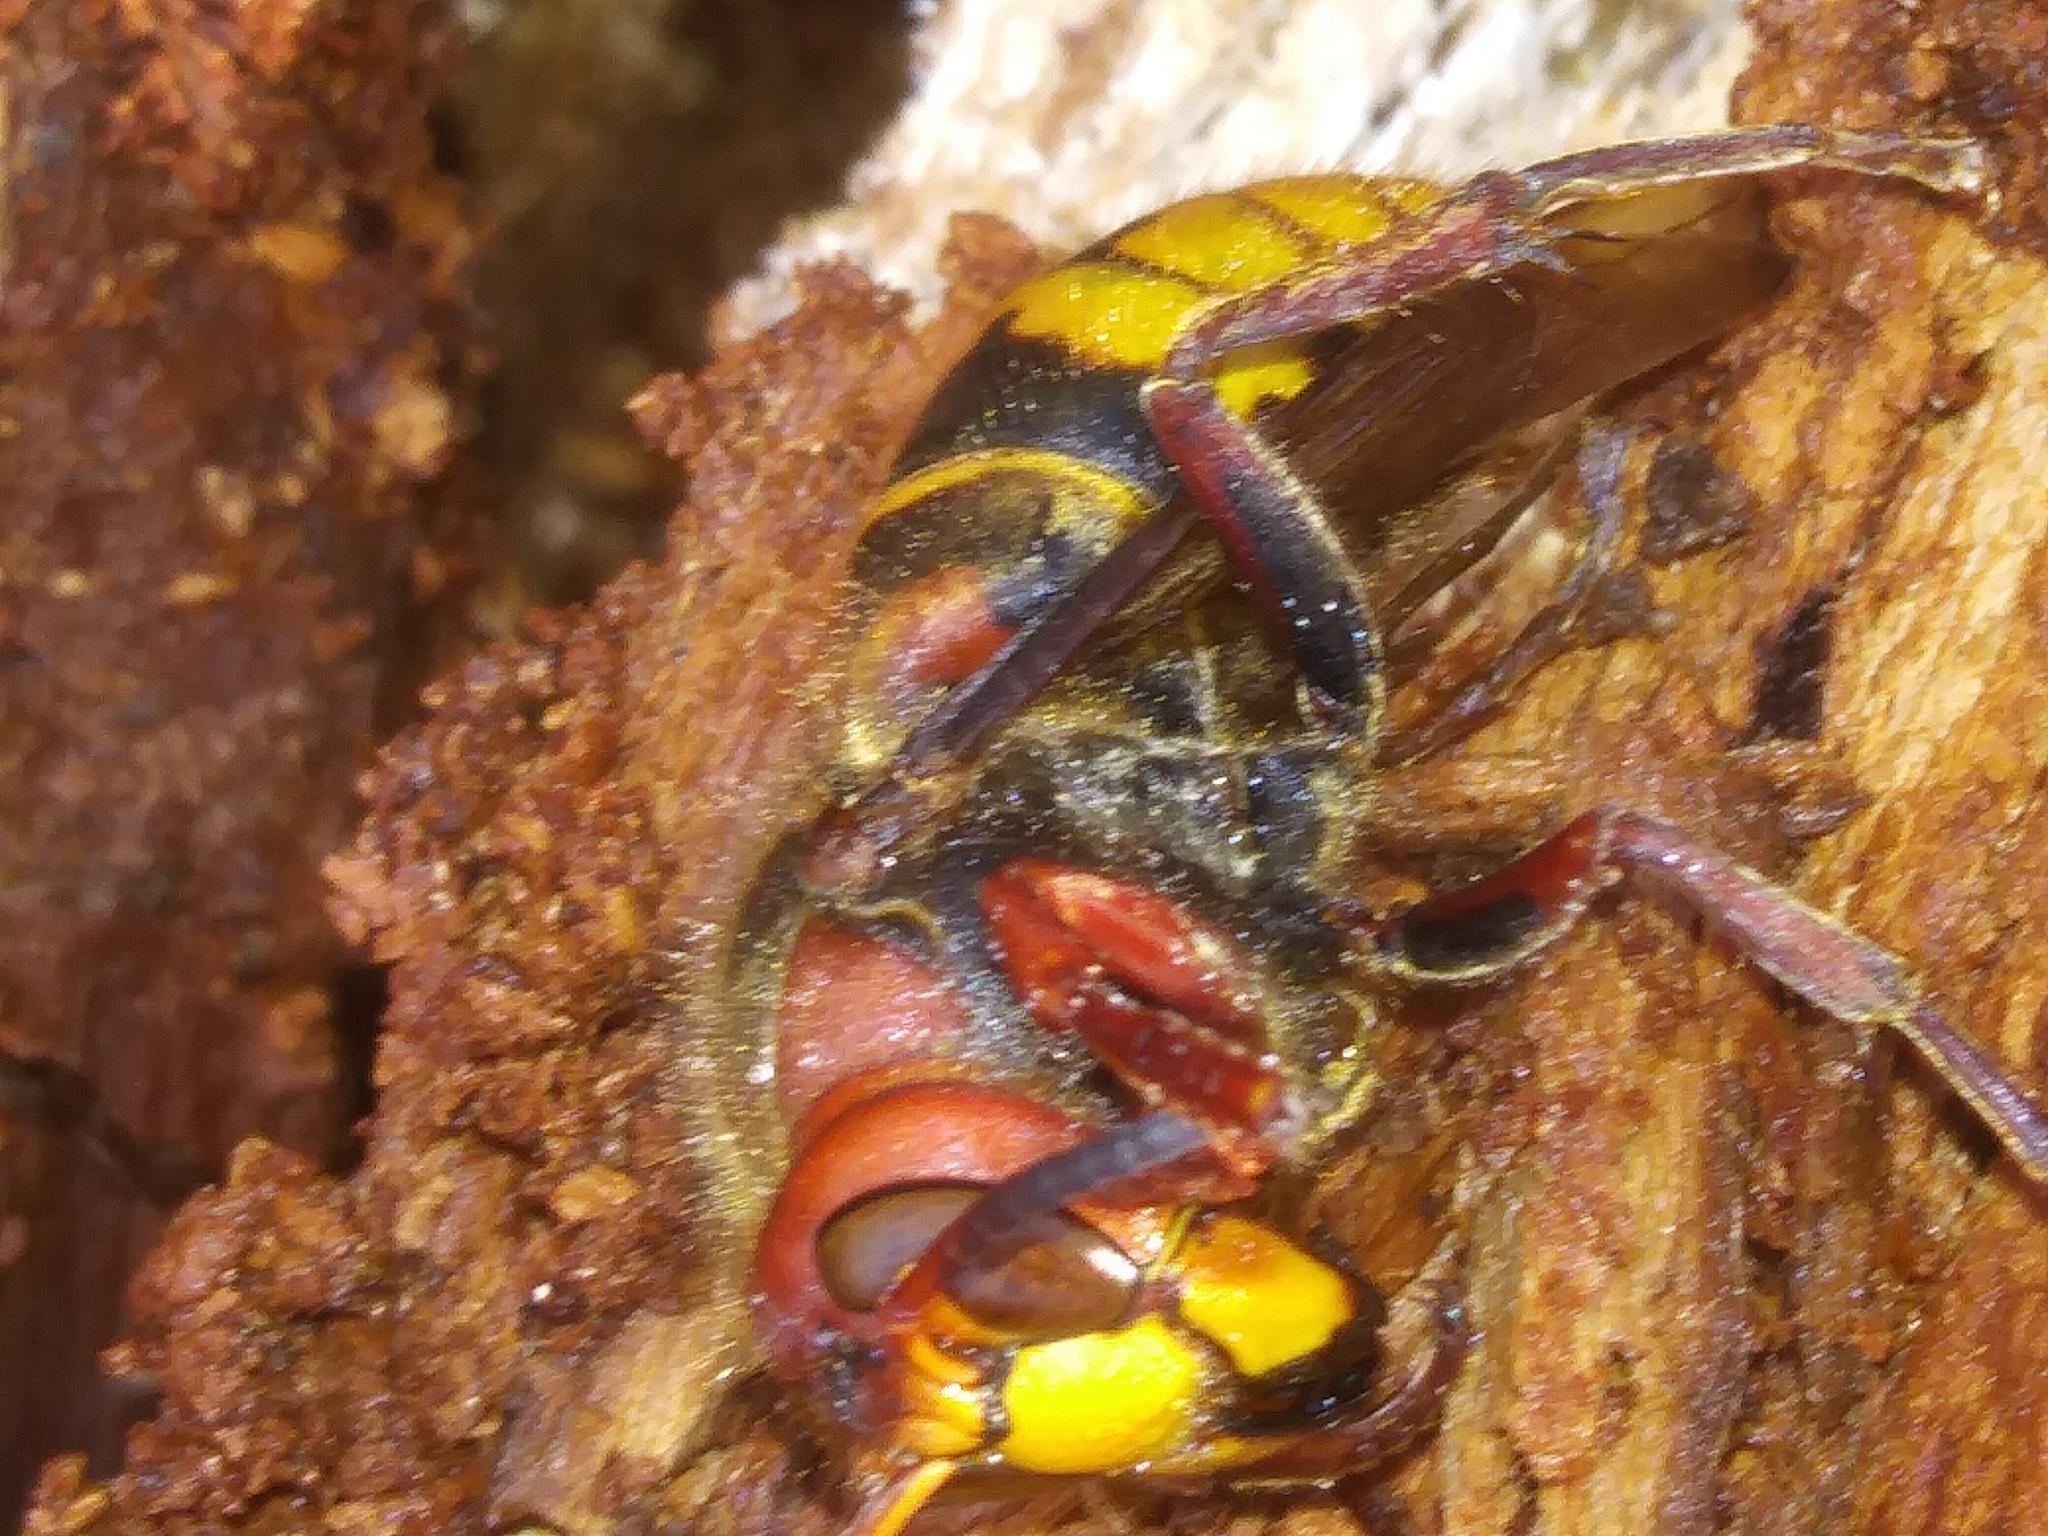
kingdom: Animalia
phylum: Arthropoda
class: Insecta
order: Hymenoptera
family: Vespidae
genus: Vespa
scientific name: Vespa crabro
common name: Hornet
